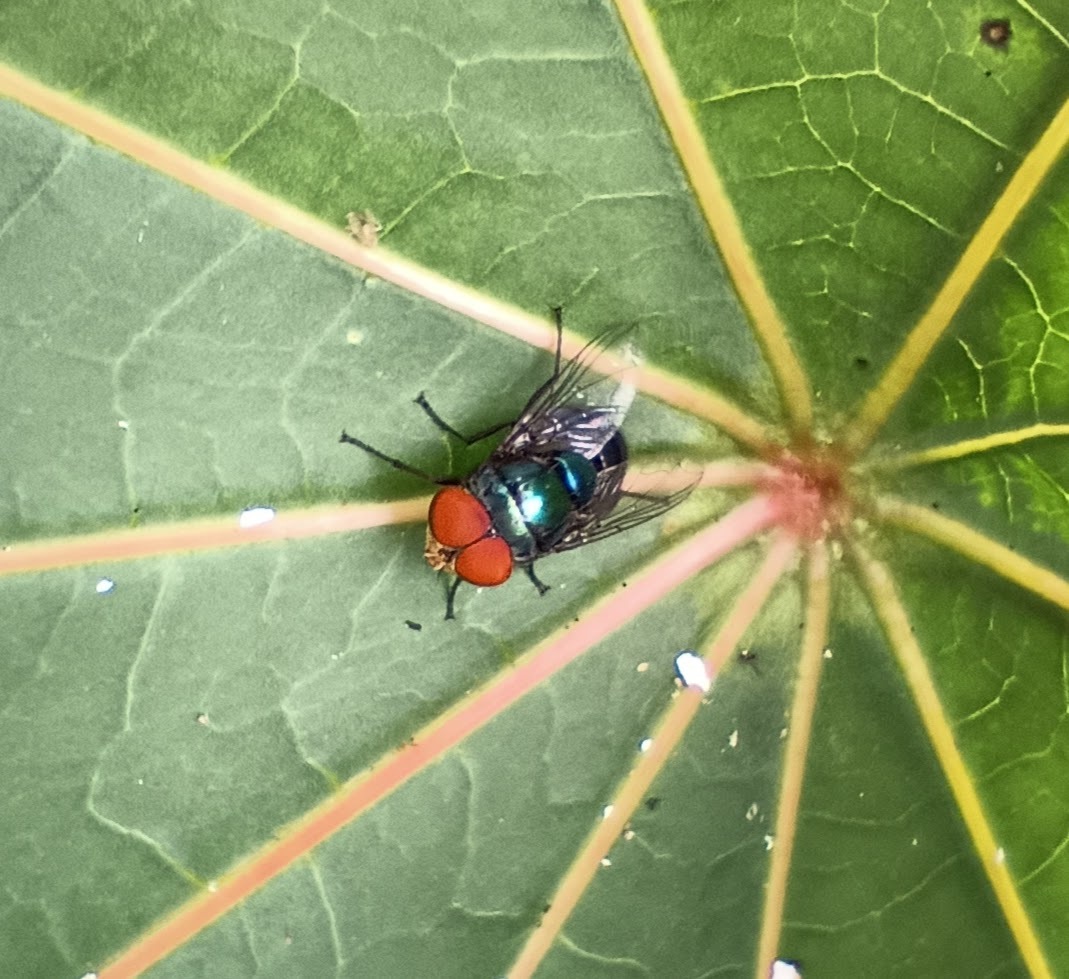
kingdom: Animalia
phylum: Arthropoda
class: Insecta
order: Diptera
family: Calliphoridae
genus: Chrysomya
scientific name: Chrysomya megacephala
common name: Blow fly
